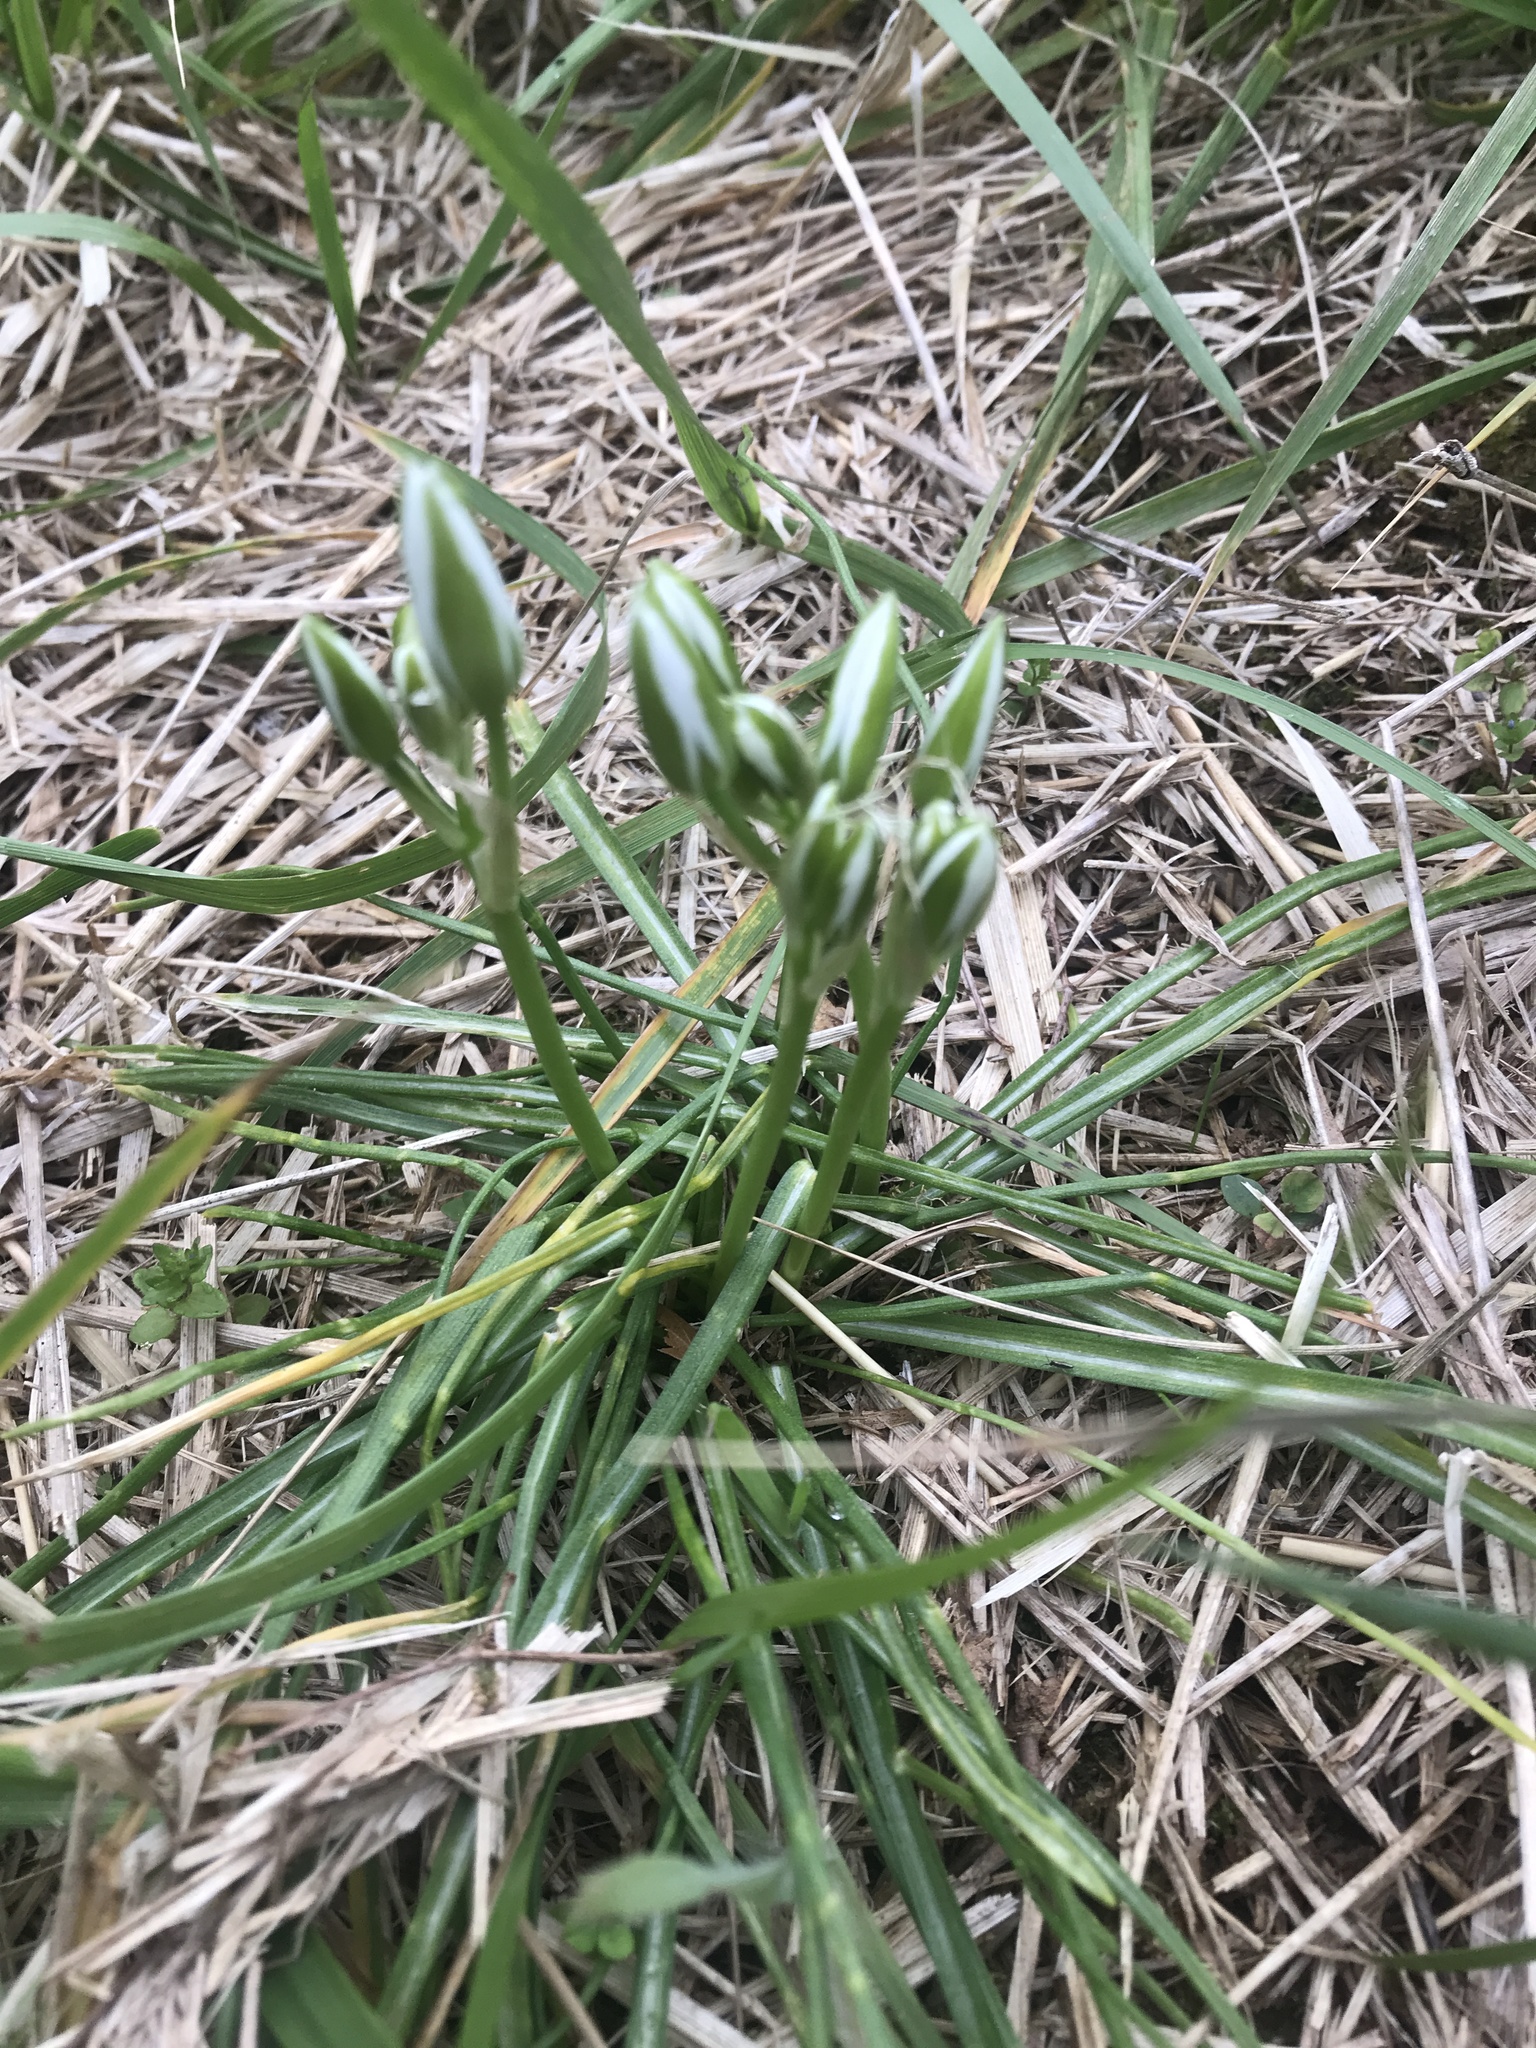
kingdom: Plantae
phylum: Tracheophyta
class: Liliopsida
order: Asparagales
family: Asparagaceae
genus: Ornithogalum
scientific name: Ornithogalum umbellatum
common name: Garden star-of-bethlehem
